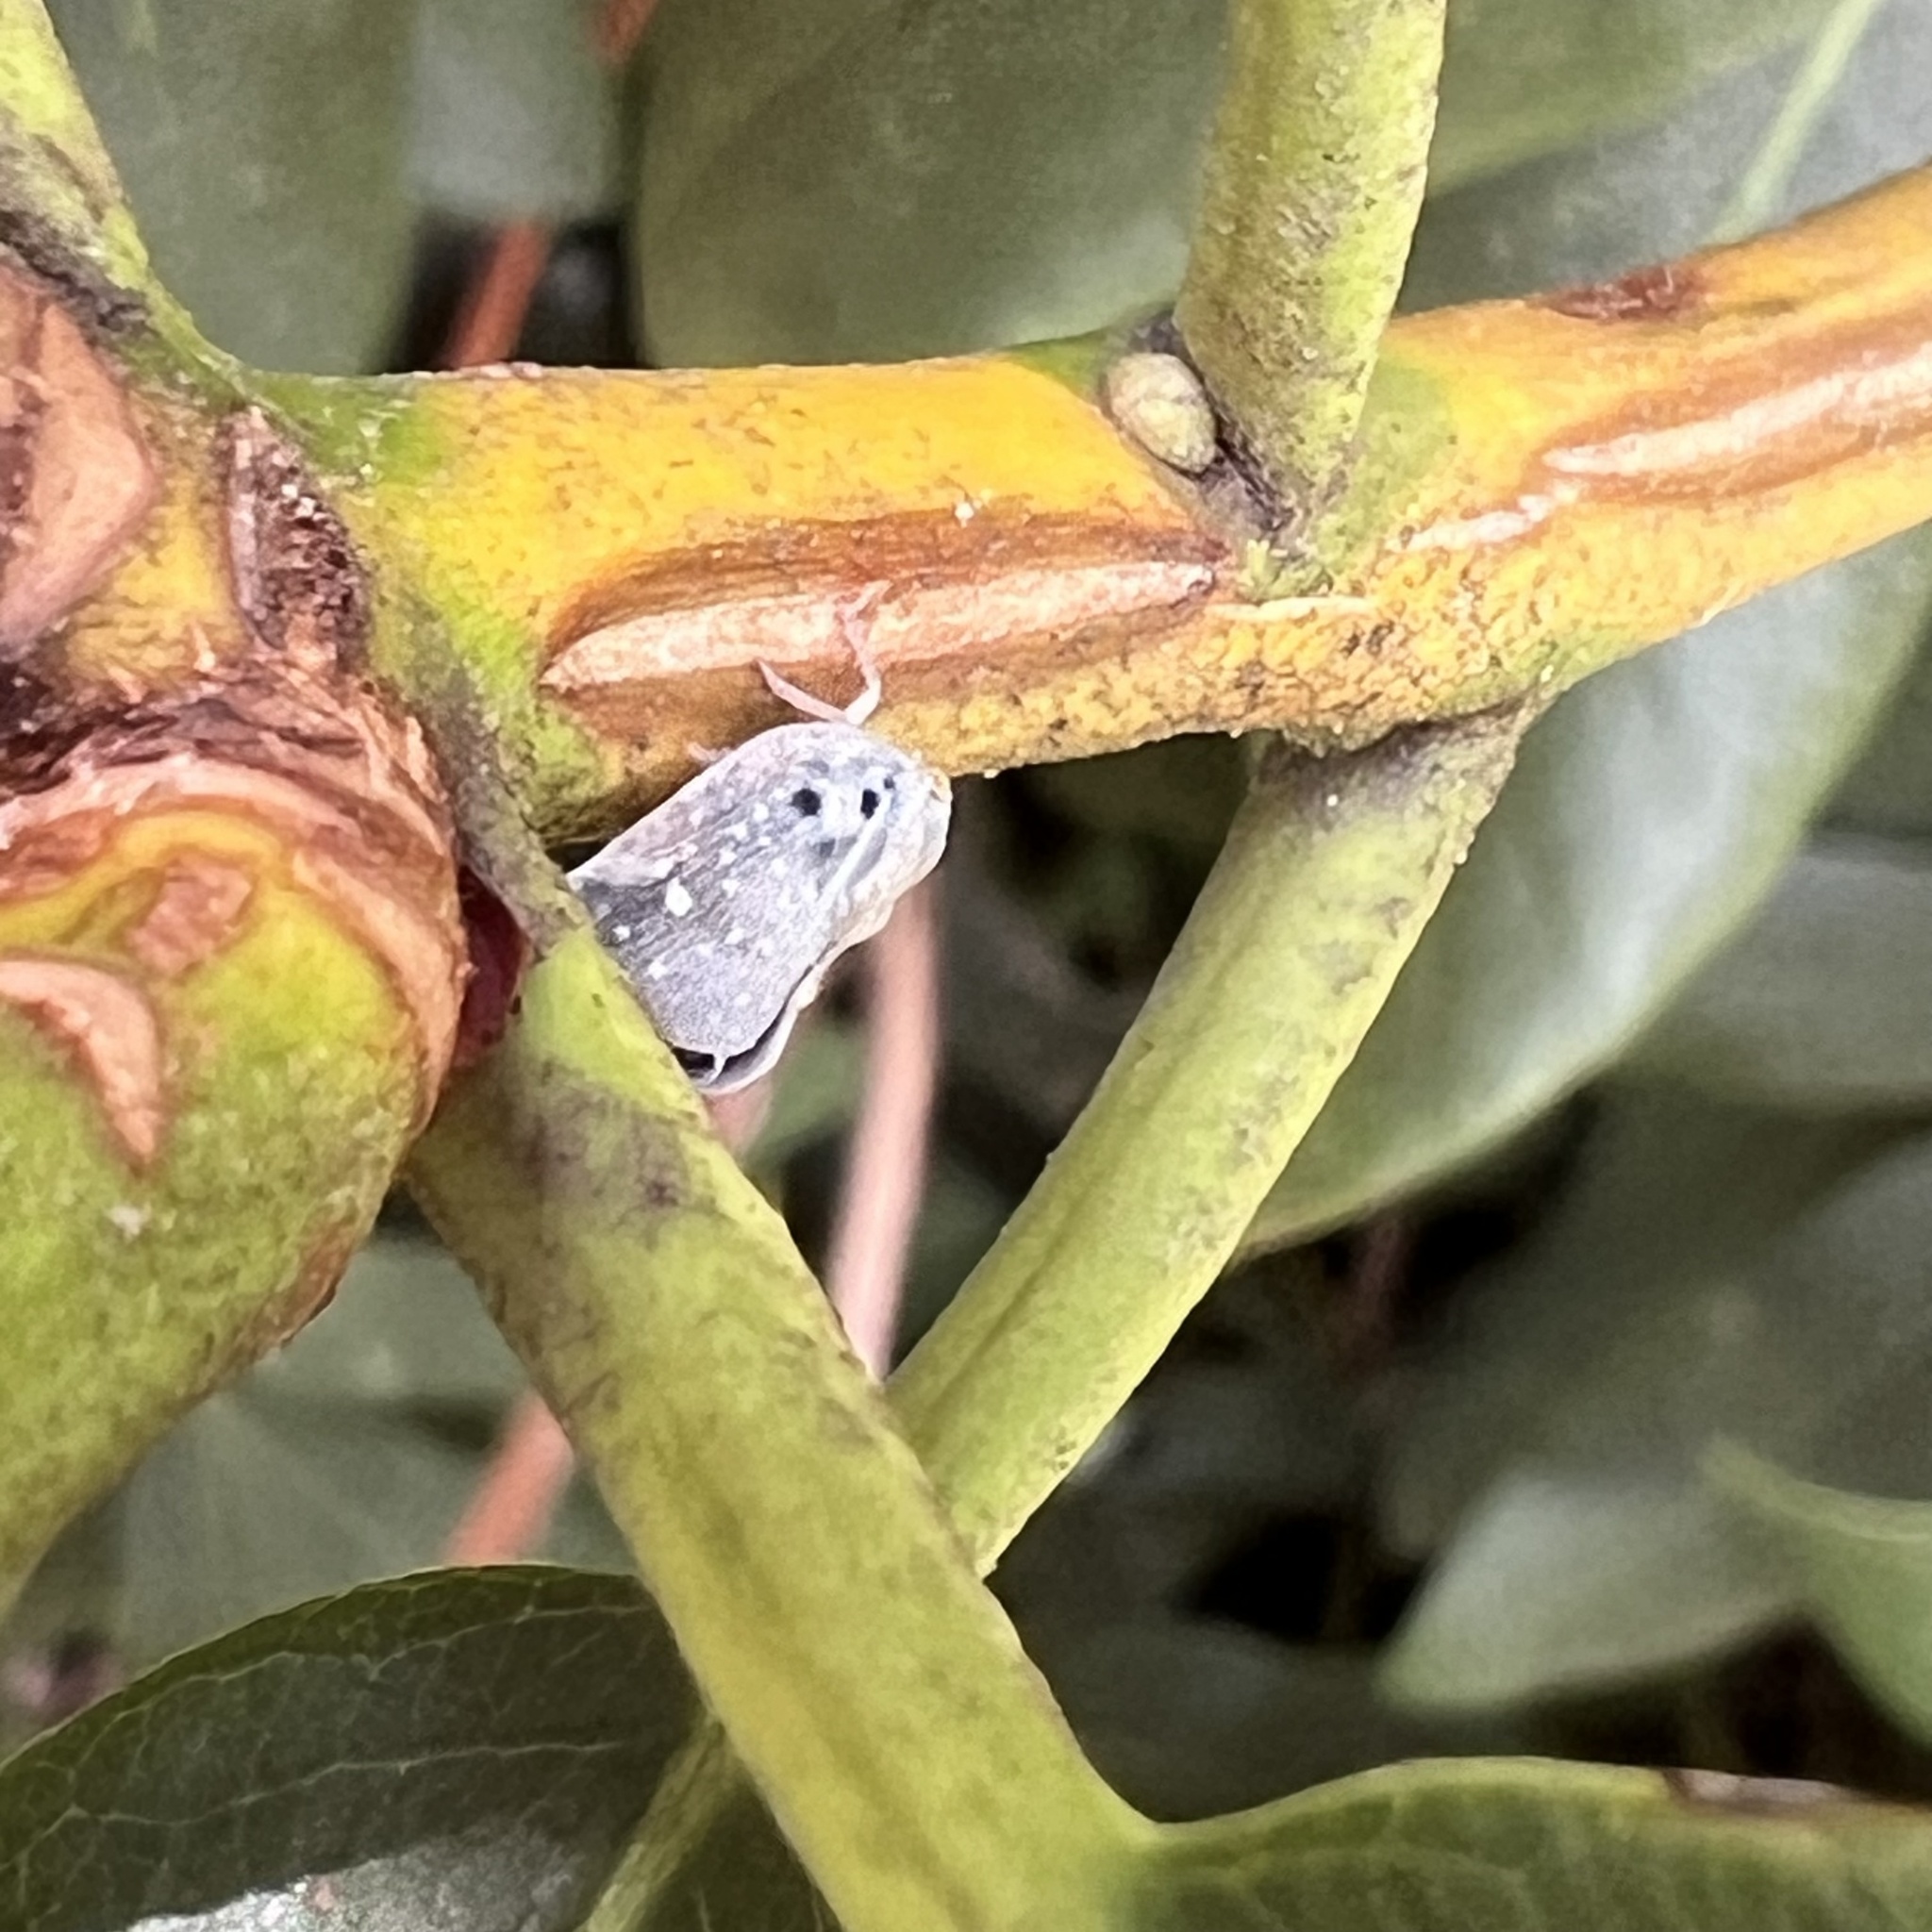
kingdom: Animalia
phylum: Arthropoda
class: Insecta
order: Hemiptera
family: Flatidae
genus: Metcalfa
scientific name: Metcalfa pruinosa
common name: Citrus flatid planthopper
